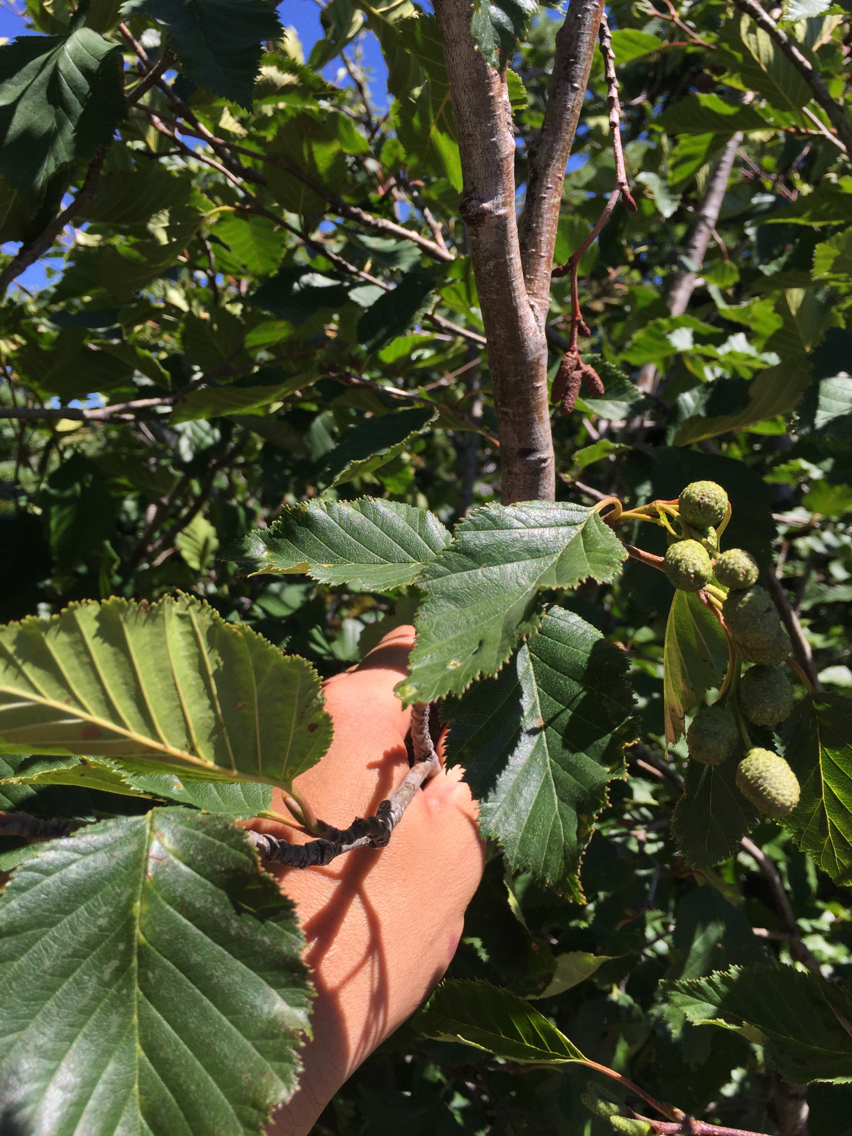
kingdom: Plantae
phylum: Tracheophyta
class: Magnoliopsida
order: Fagales
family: Betulaceae
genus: Alnus
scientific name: Alnus alnobetula
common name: Green alder
